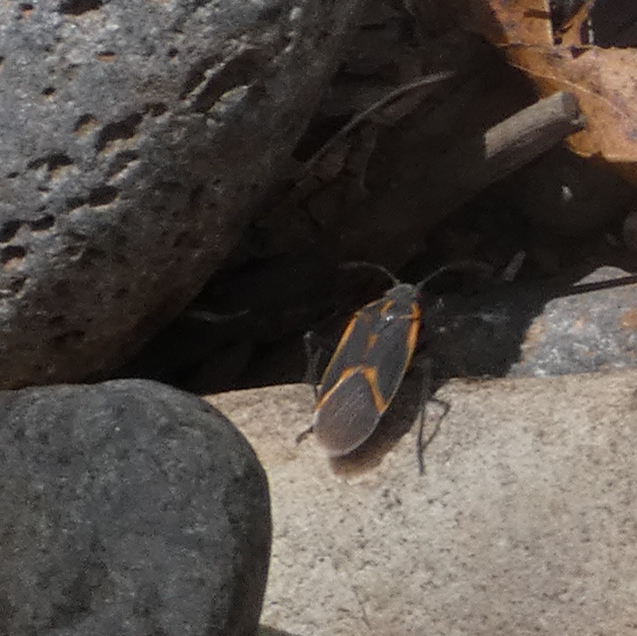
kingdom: Animalia
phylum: Arthropoda
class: Insecta
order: Hemiptera
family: Rhopalidae
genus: Boisea
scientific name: Boisea trivittata
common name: Boxelder bug
